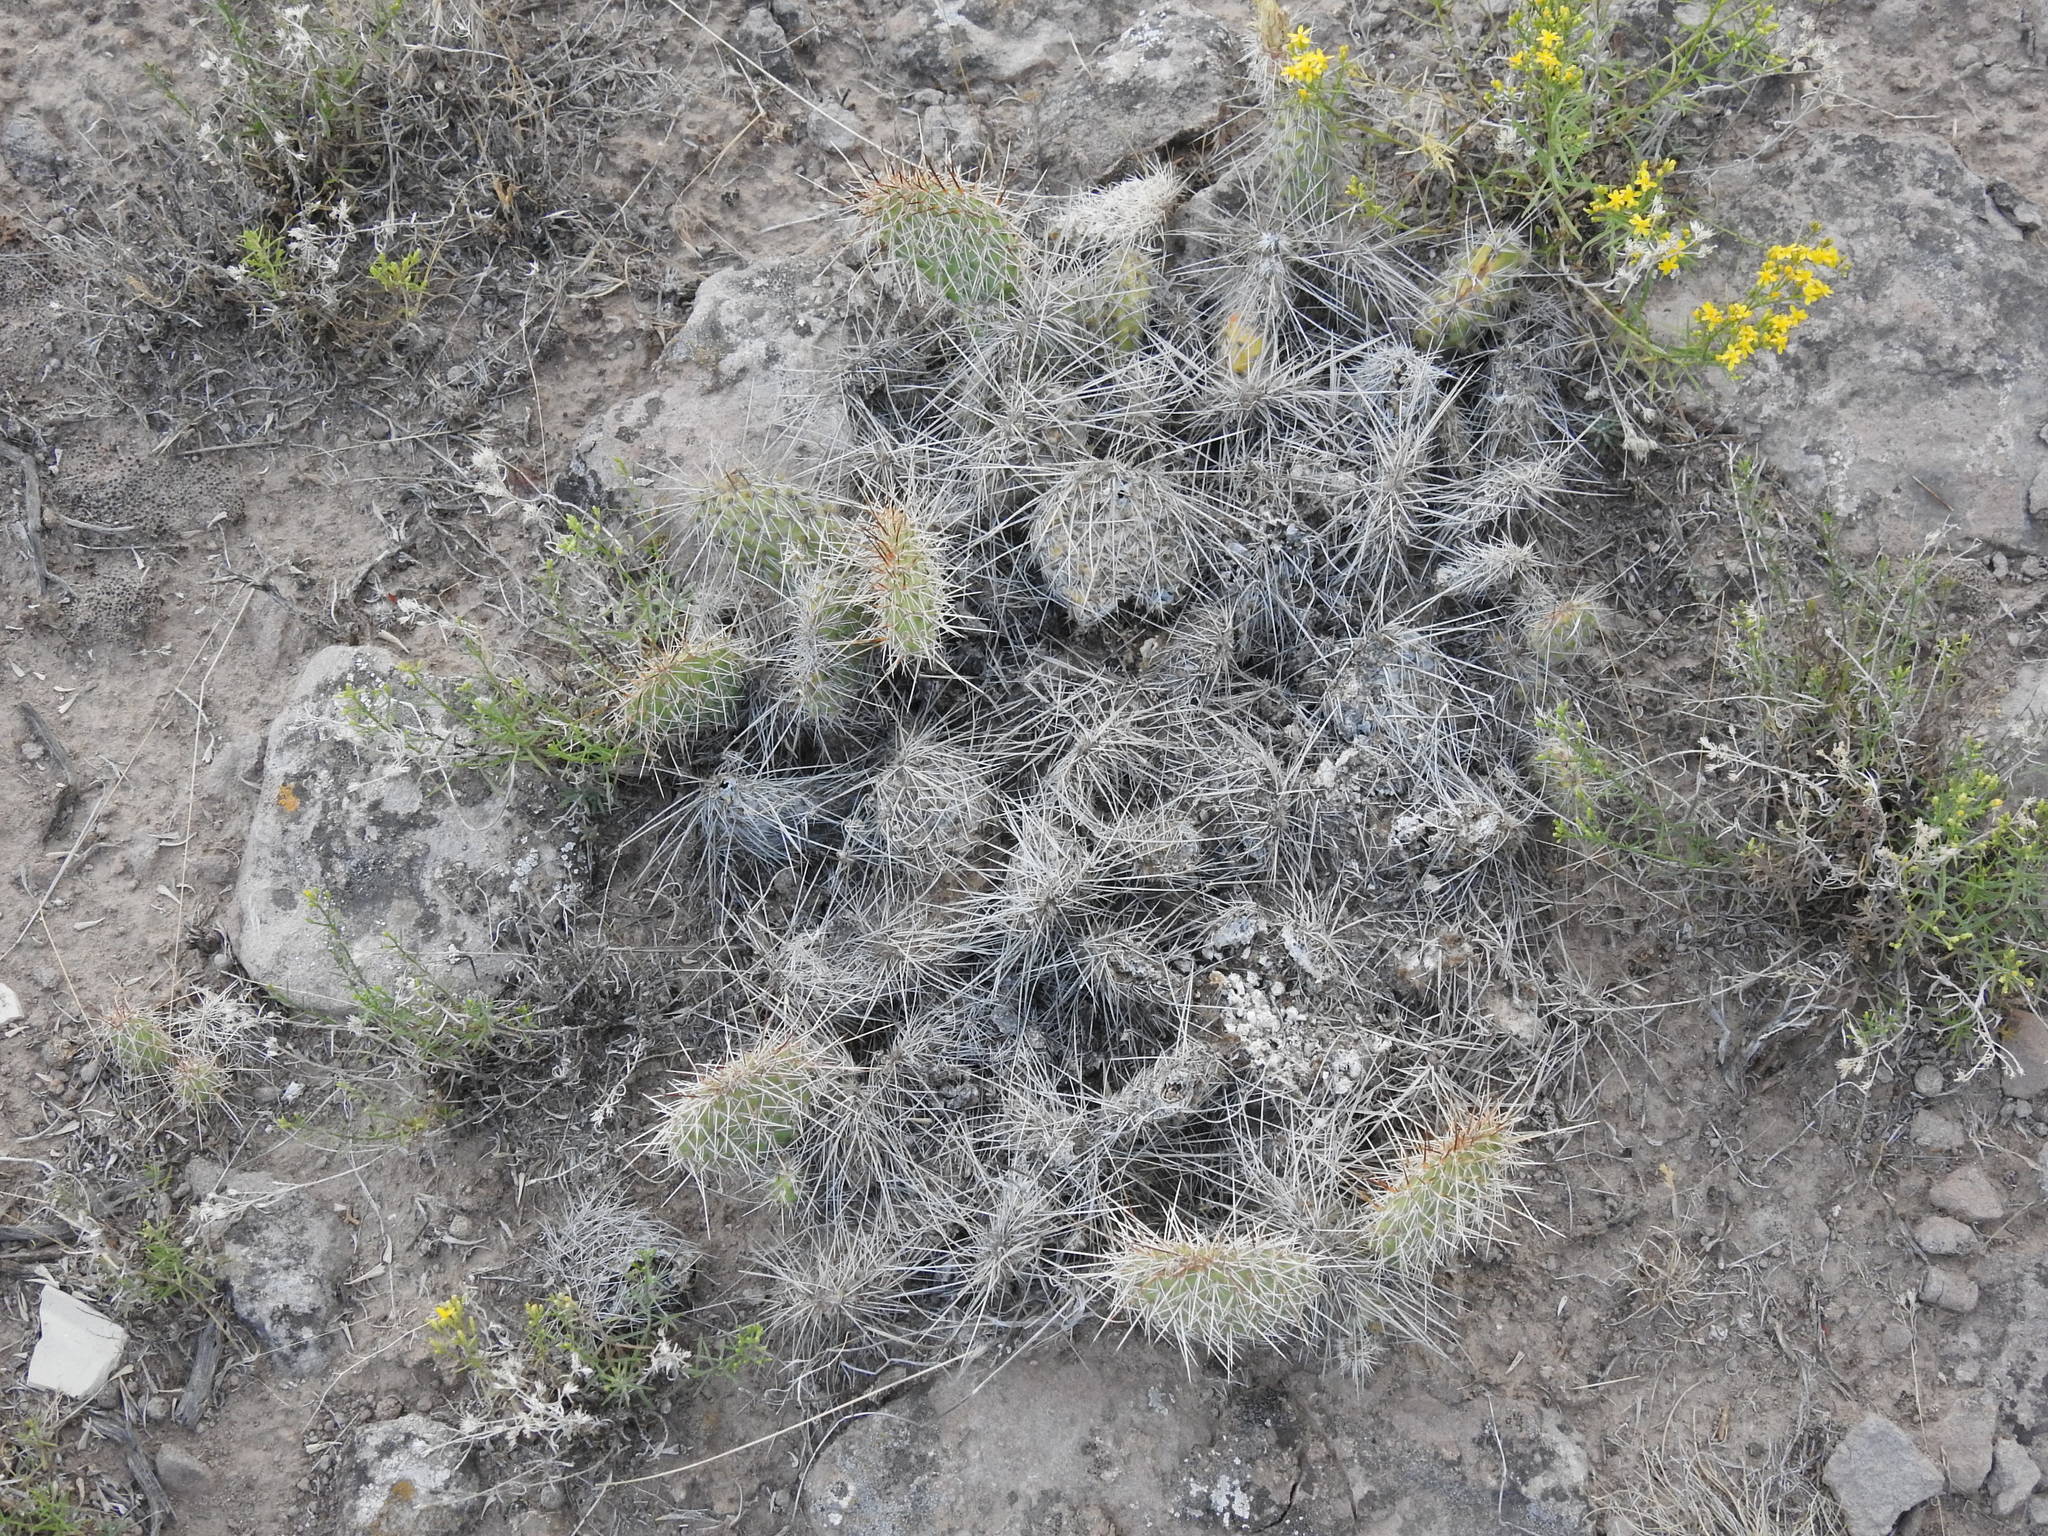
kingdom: Plantae
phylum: Tracheophyta
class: Magnoliopsida
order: Caryophyllales
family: Cactaceae
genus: Opuntia
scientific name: Opuntia polyacantha
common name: Plains prickly-pear
